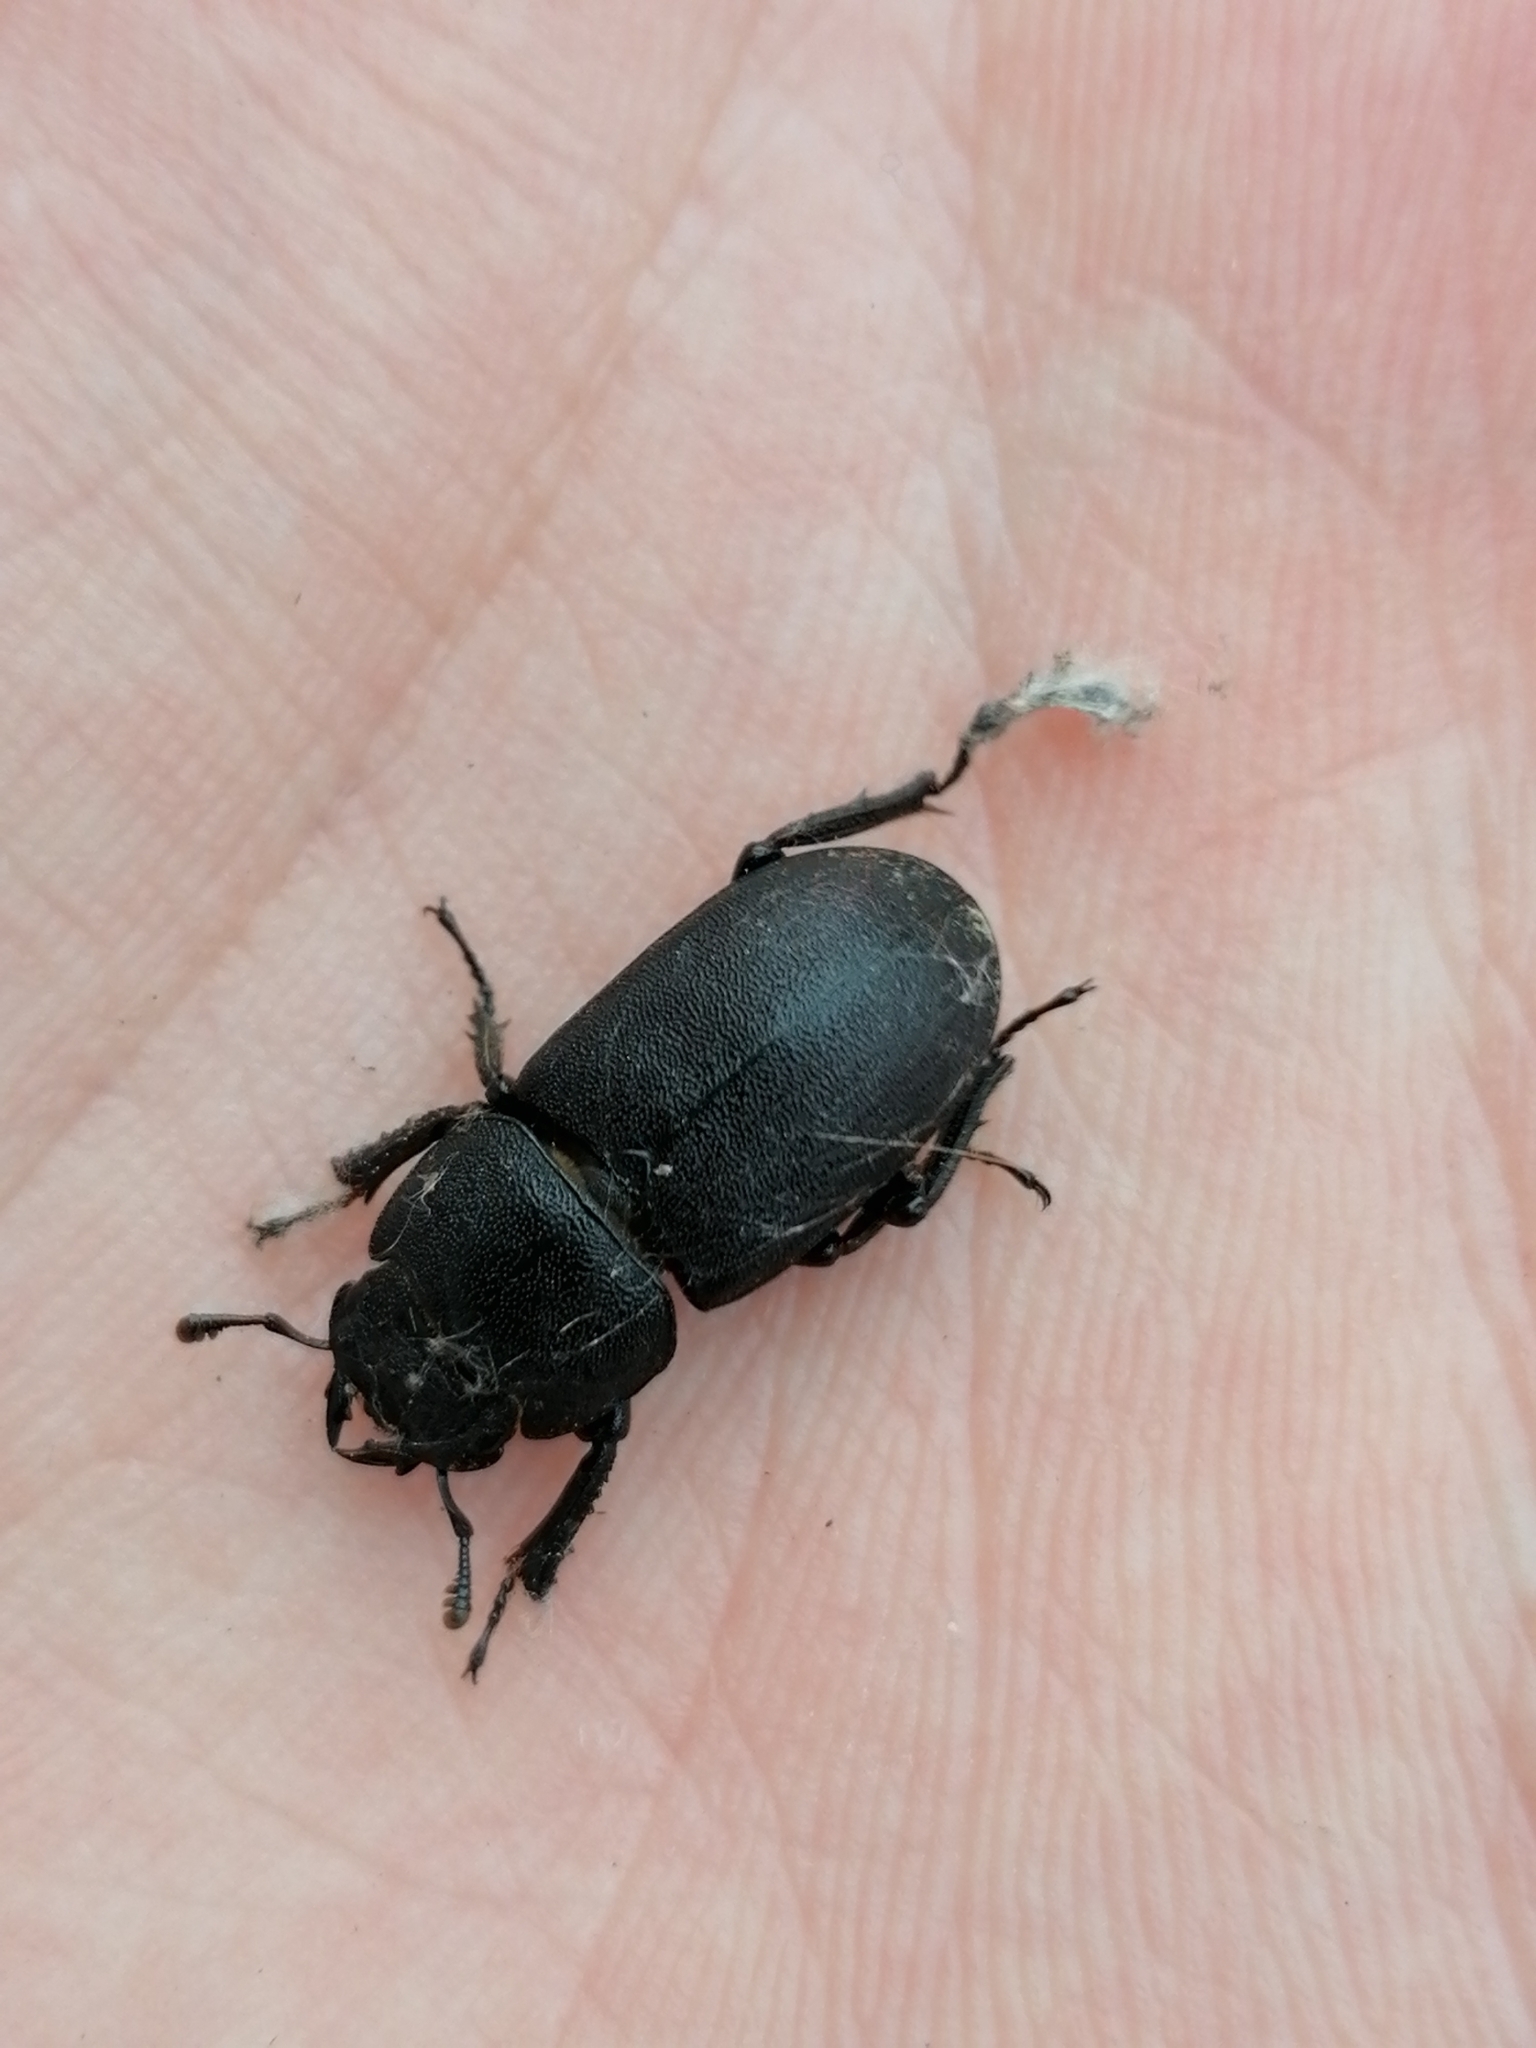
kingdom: Animalia
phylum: Arthropoda
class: Insecta
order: Coleoptera
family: Lucanidae
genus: Dorcus
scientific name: Dorcus parallelipipedus
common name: Lesser stag beetle
